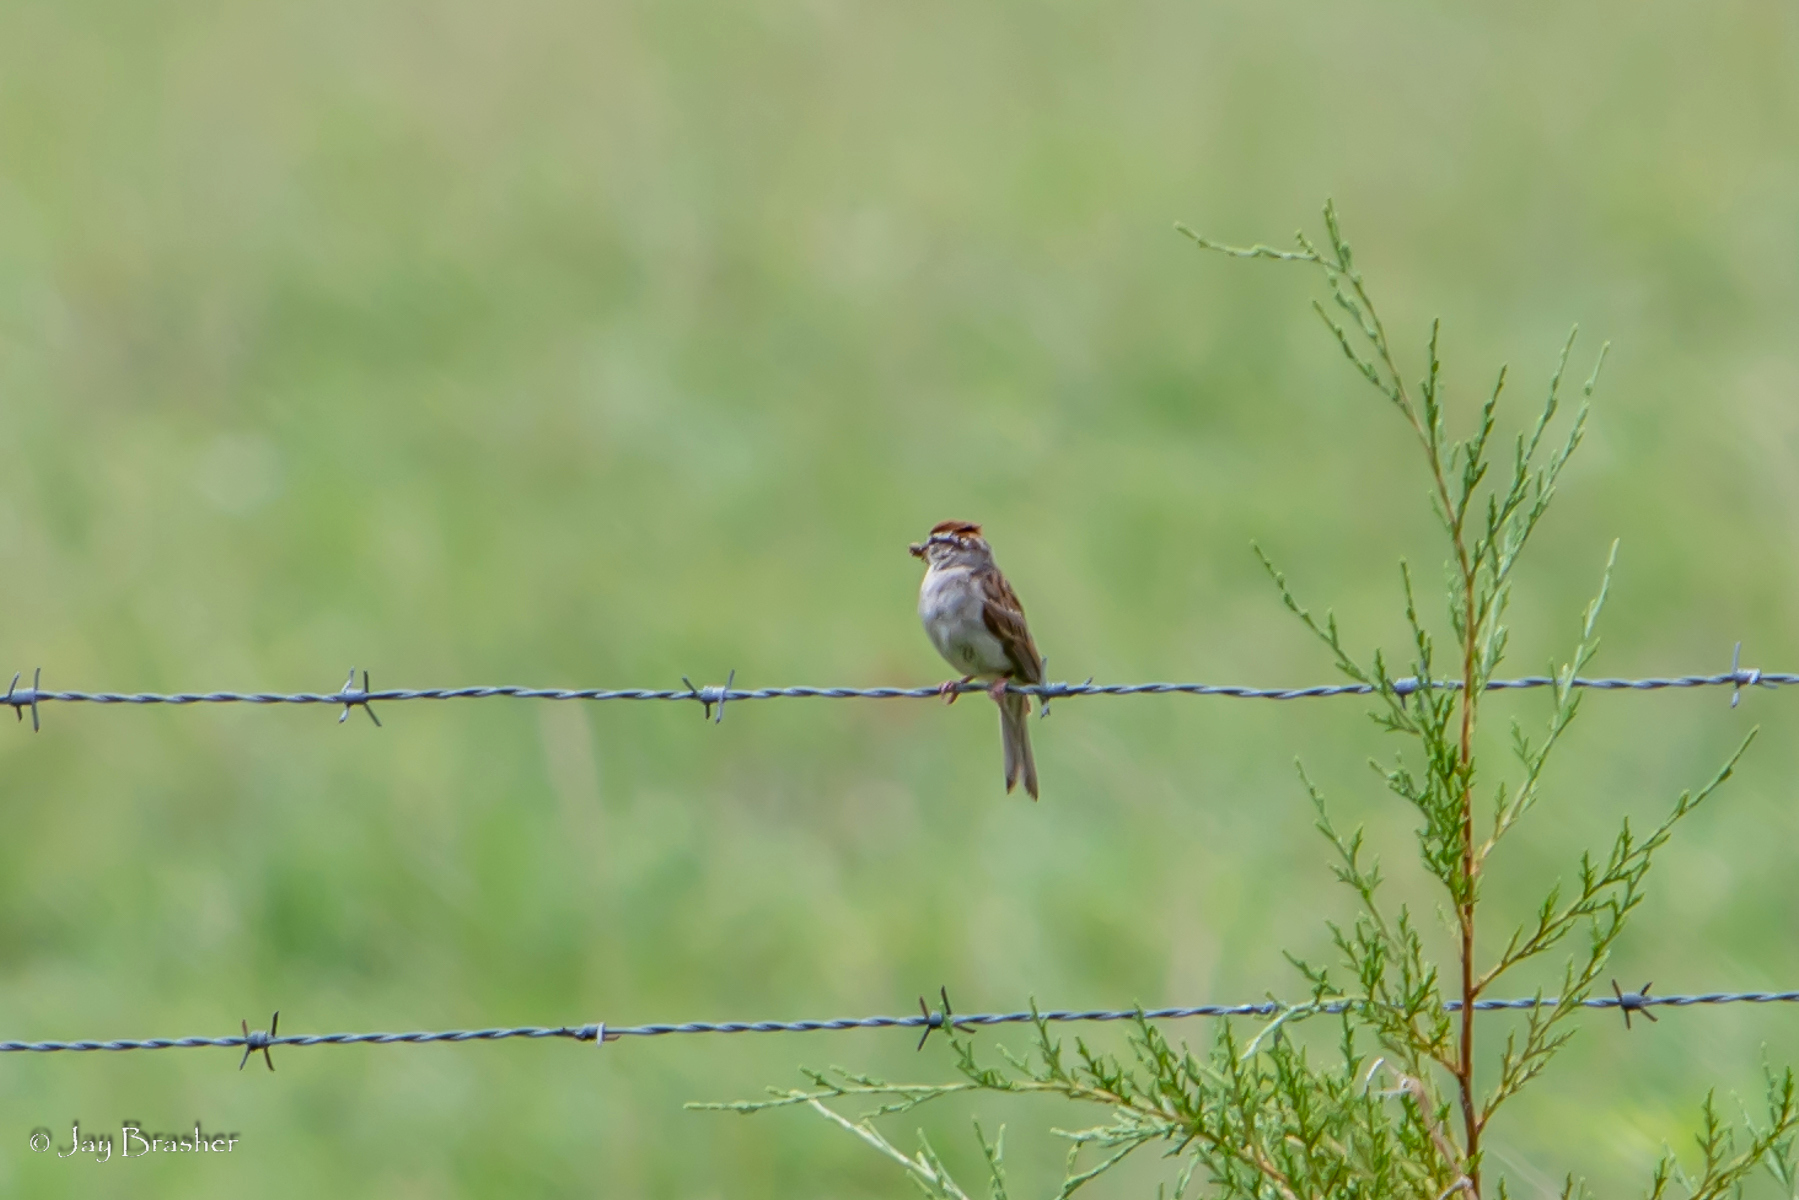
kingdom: Animalia
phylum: Chordata
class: Aves
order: Passeriformes
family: Passerellidae
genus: Spizella
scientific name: Spizella passerina
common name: Chipping sparrow
